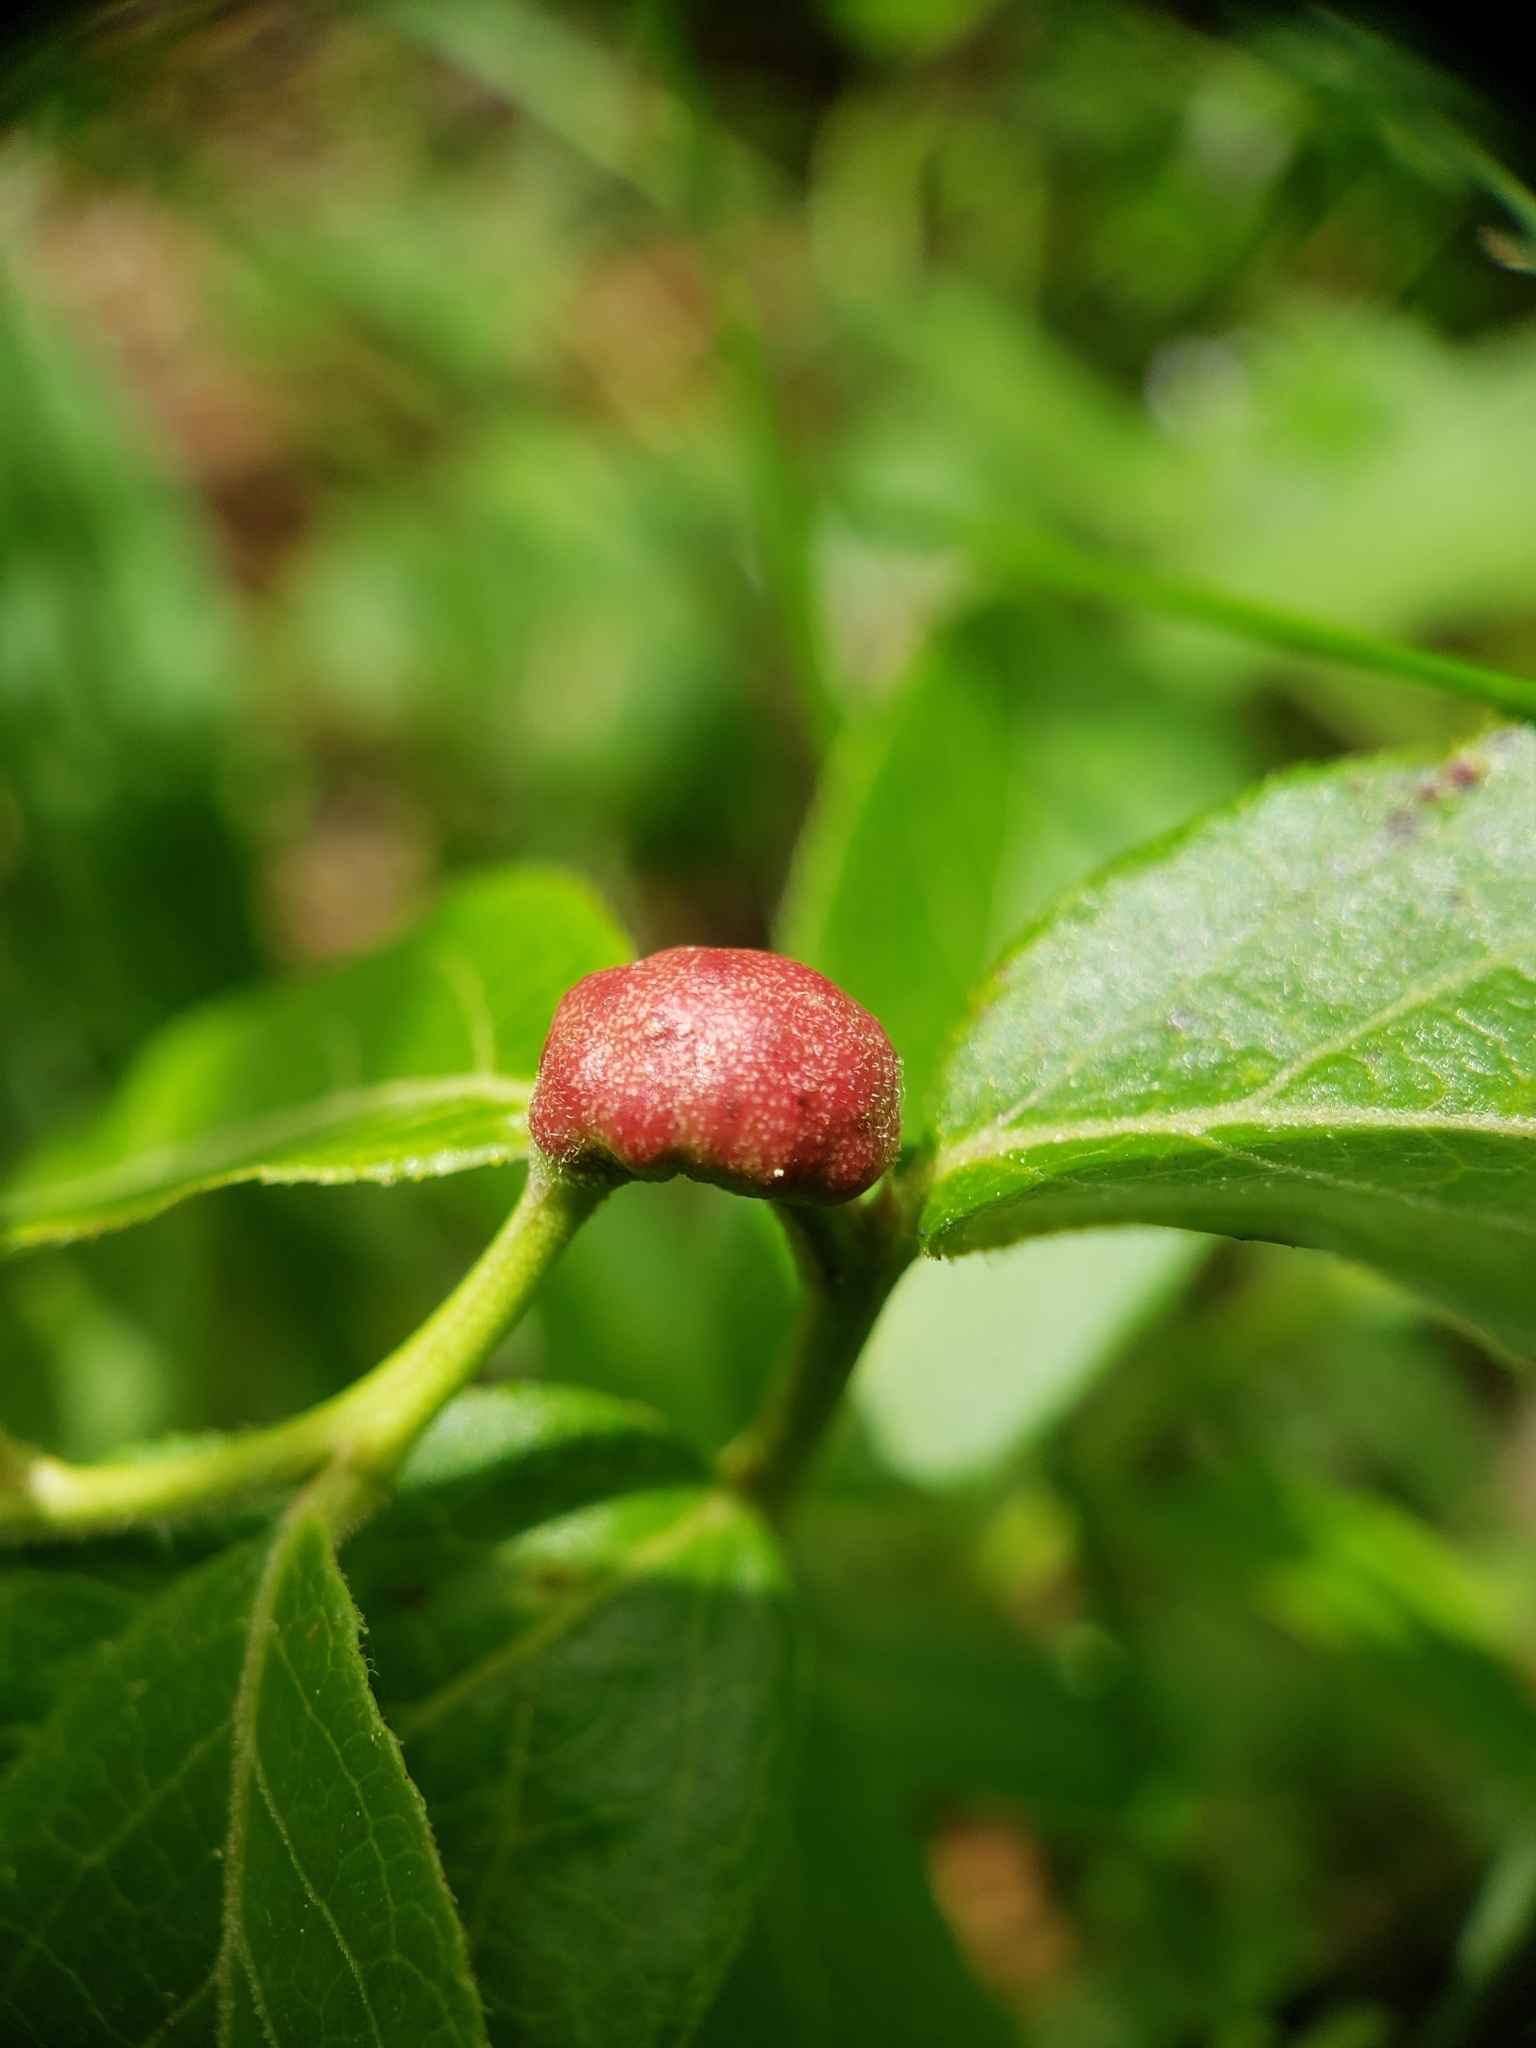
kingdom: Animalia
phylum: Arthropoda
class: Insecta
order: Hymenoptera
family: Pteromalidae
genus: Hemadas
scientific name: Hemadas nubilipennis
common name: Blueberry stem gall wasp
